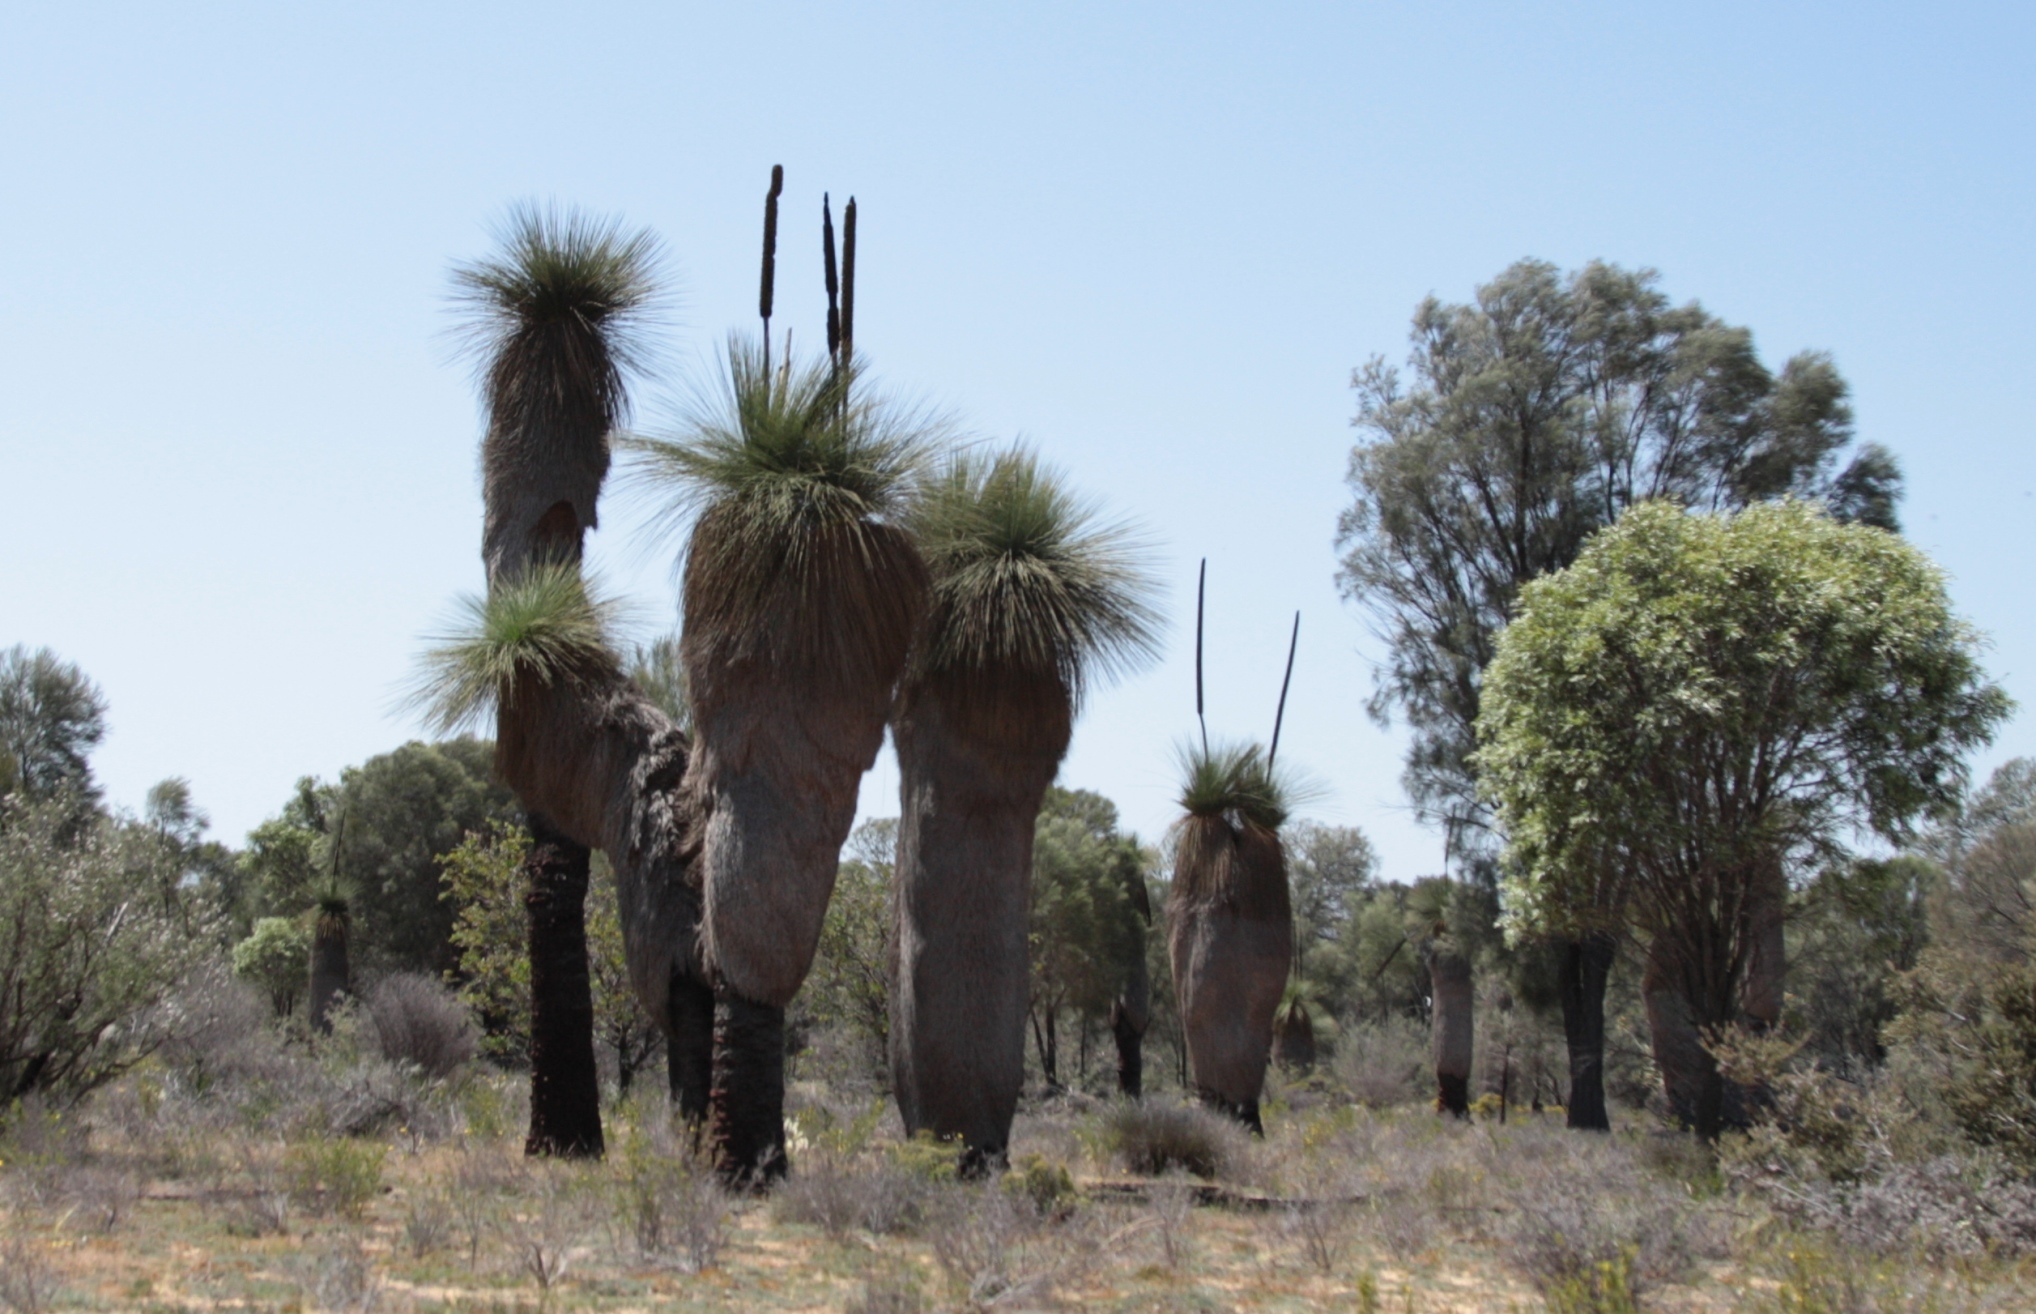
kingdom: Plantae
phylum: Tracheophyta
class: Liliopsida
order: Asparagales
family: Asphodelaceae
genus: Xanthorrhoea
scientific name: Xanthorrhoea drummondii
